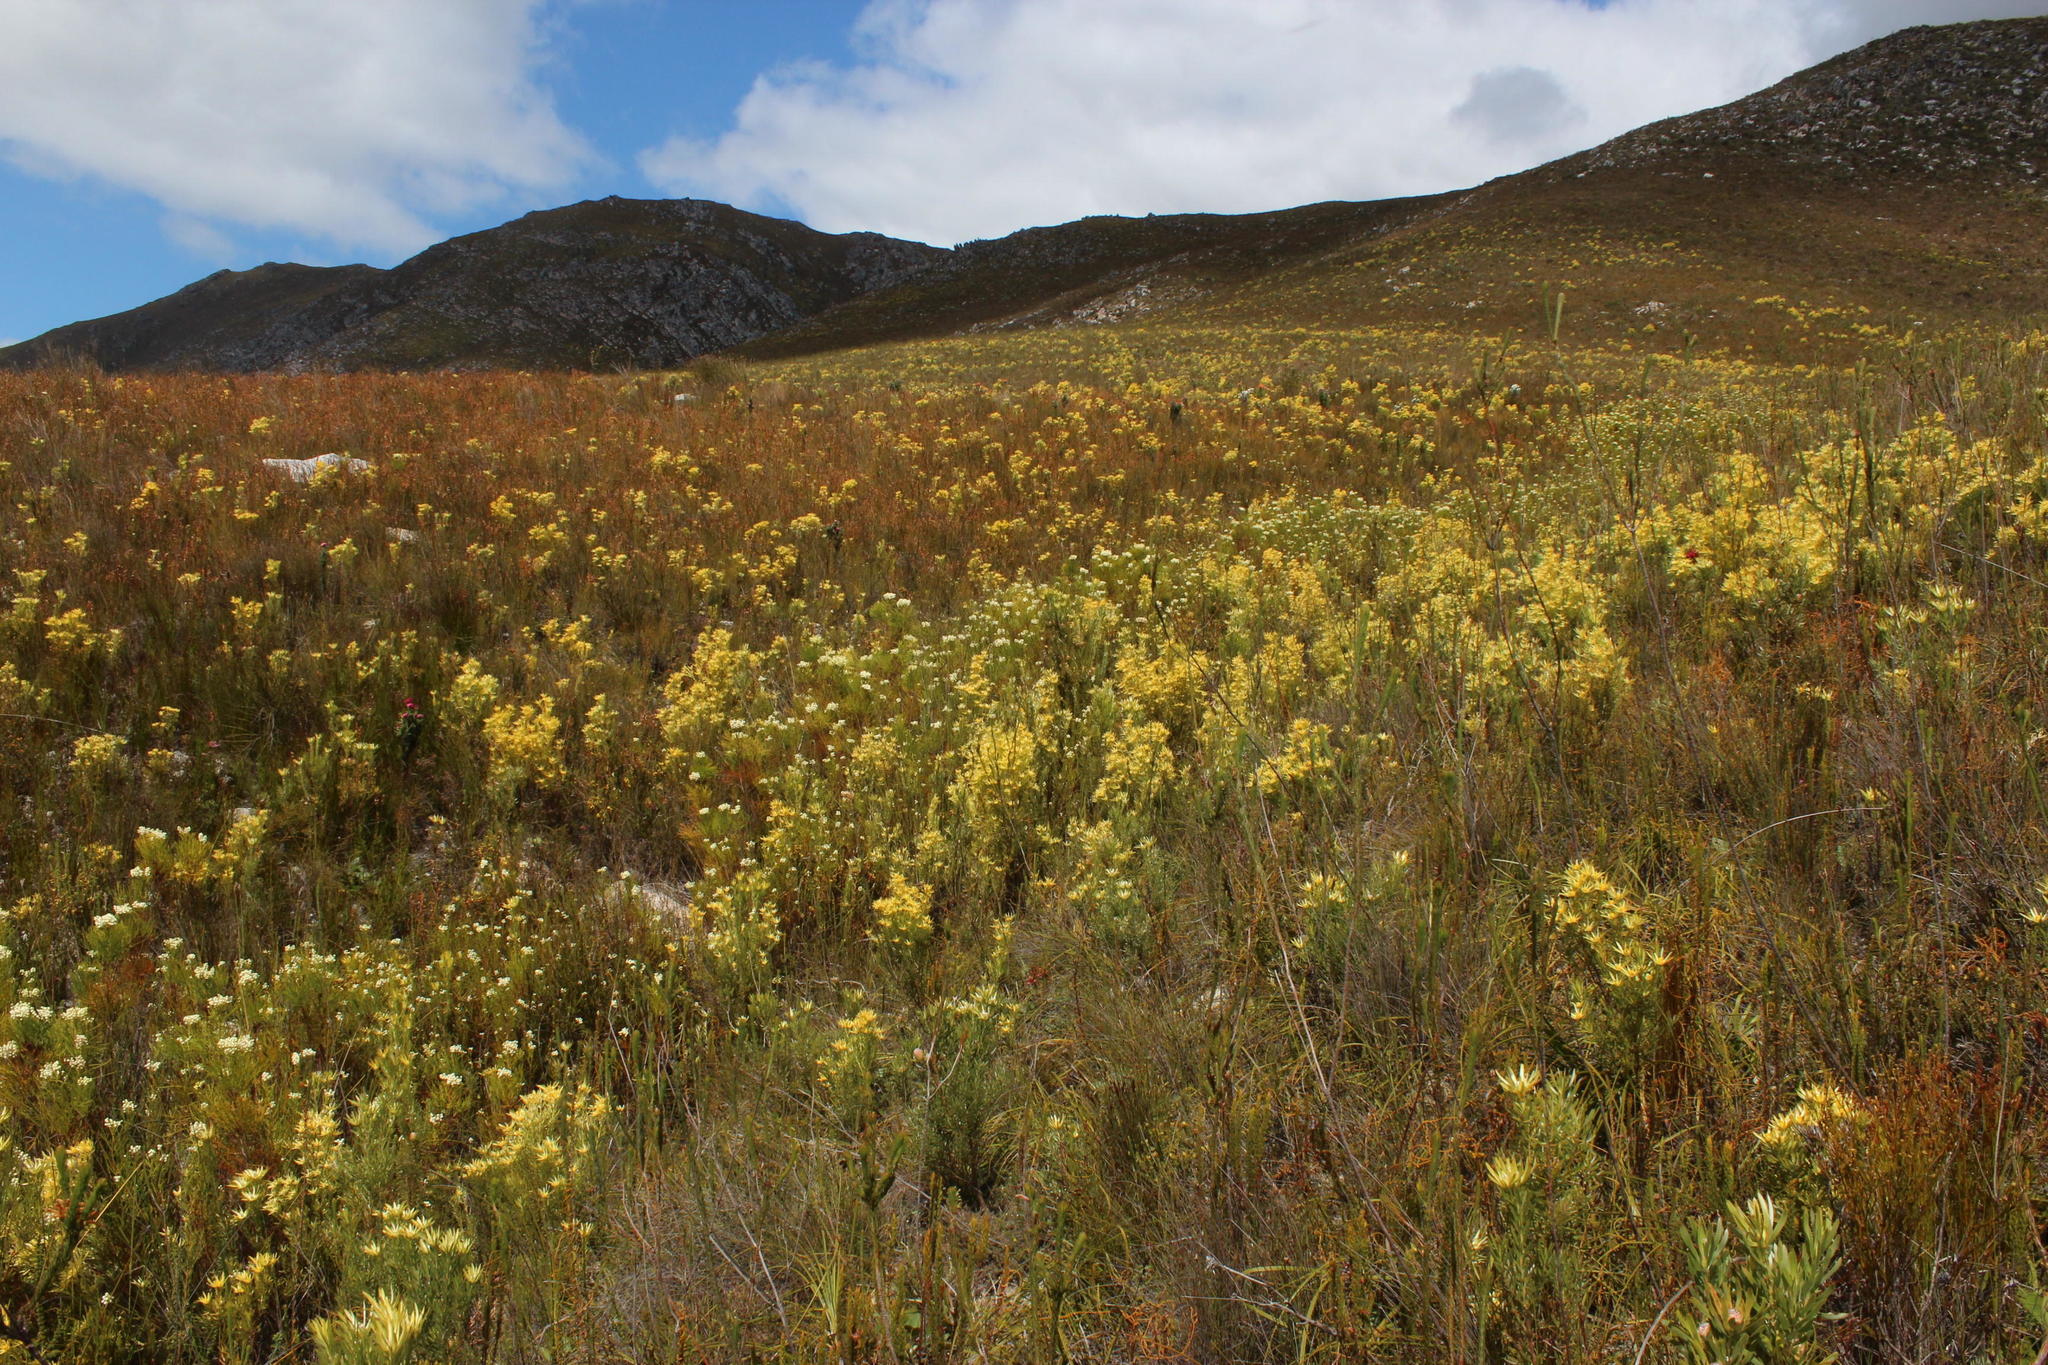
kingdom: Plantae
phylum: Tracheophyta
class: Magnoliopsida
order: Proteales
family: Proteaceae
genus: Leucadendron
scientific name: Leucadendron xanthoconus
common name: Sickle-leaf conebush
